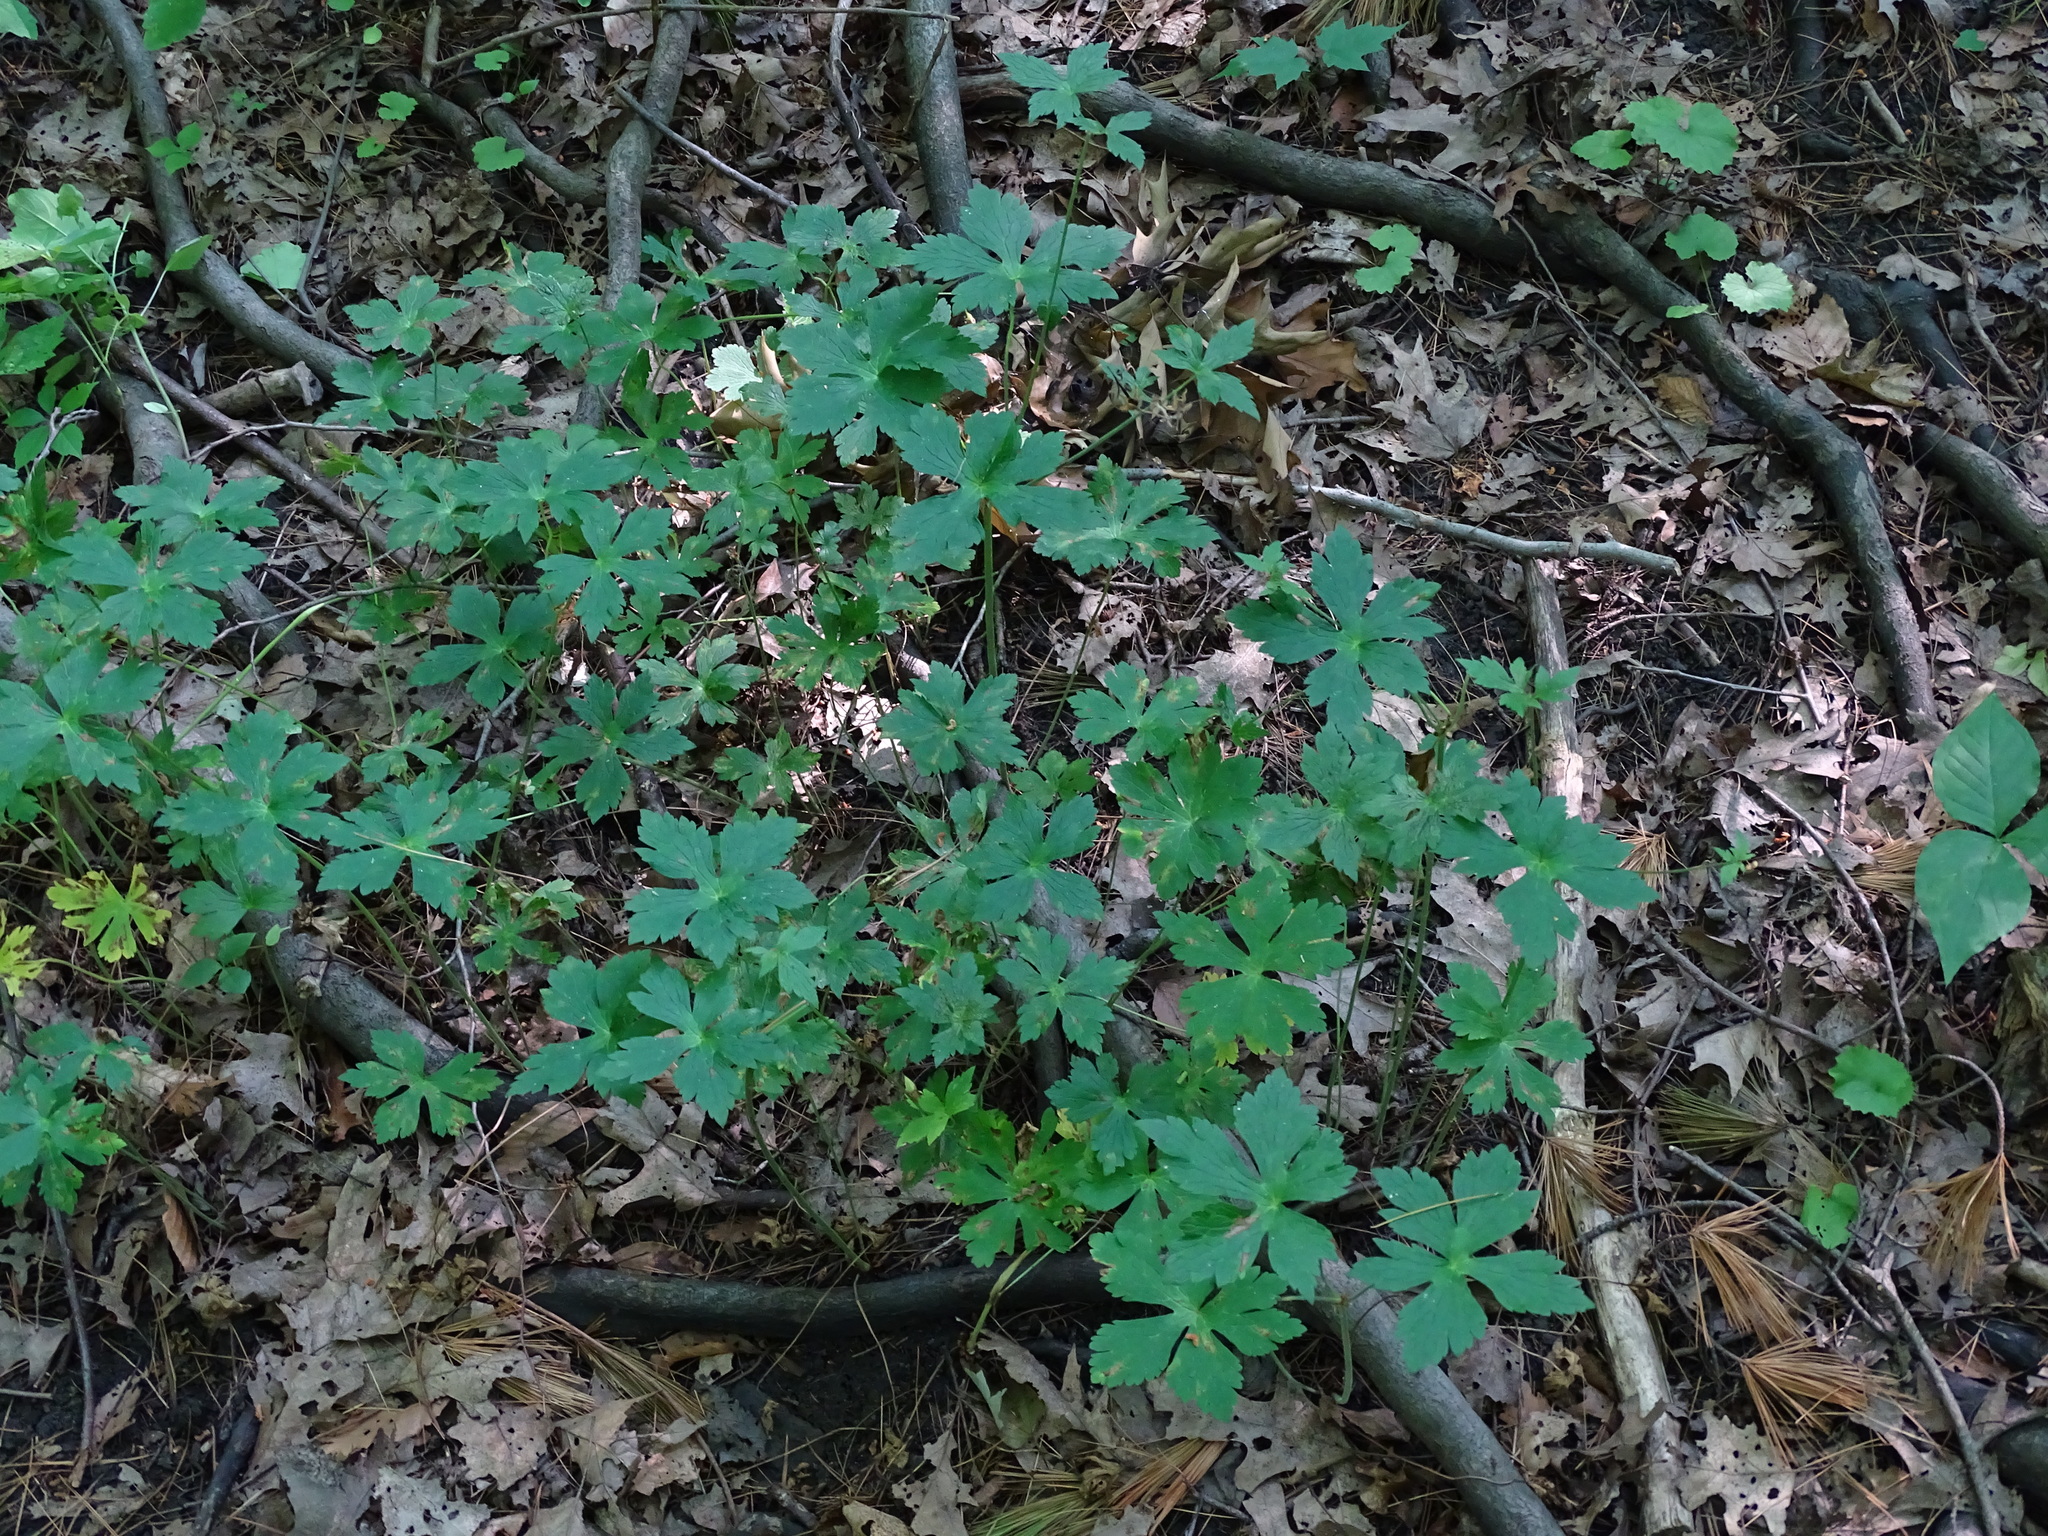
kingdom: Plantae
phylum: Tracheophyta
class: Magnoliopsida
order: Geraniales
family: Geraniaceae
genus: Geranium
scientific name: Geranium maculatum
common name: Spotted geranium
